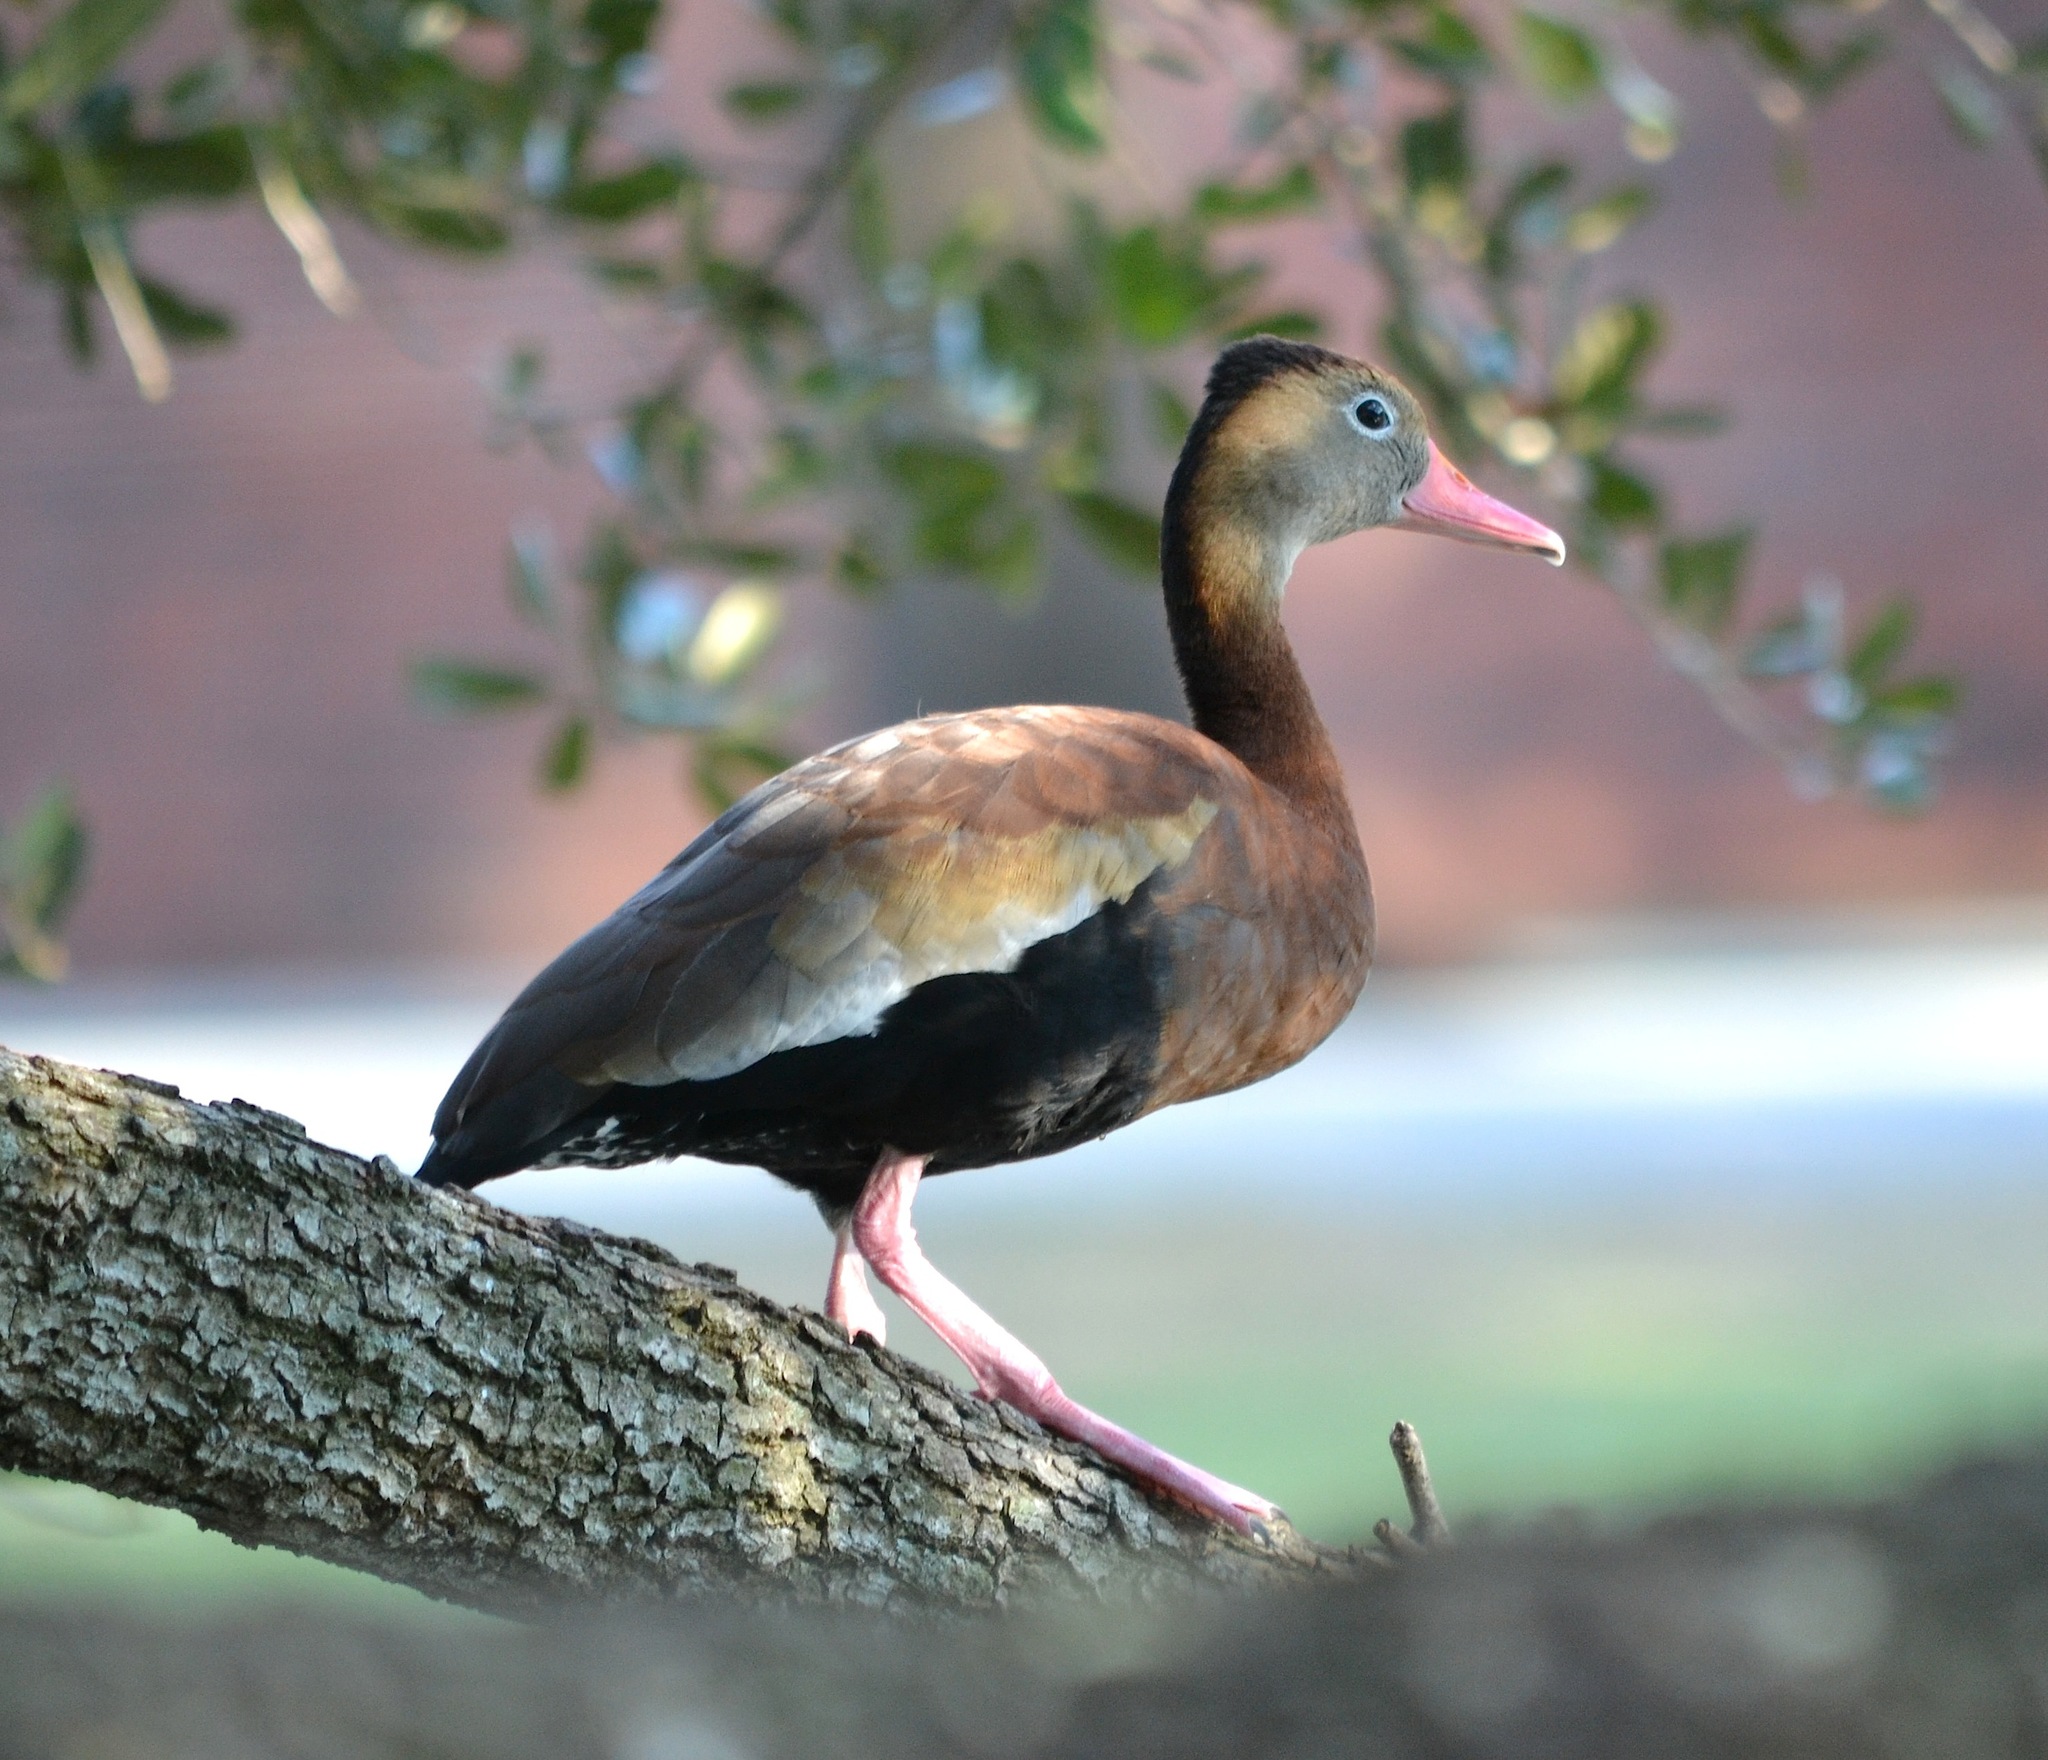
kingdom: Animalia
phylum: Chordata
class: Aves
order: Anseriformes
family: Anatidae
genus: Dendrocygna
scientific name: Dendrocygna autumnalis
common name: Black-bellied whistling duck
